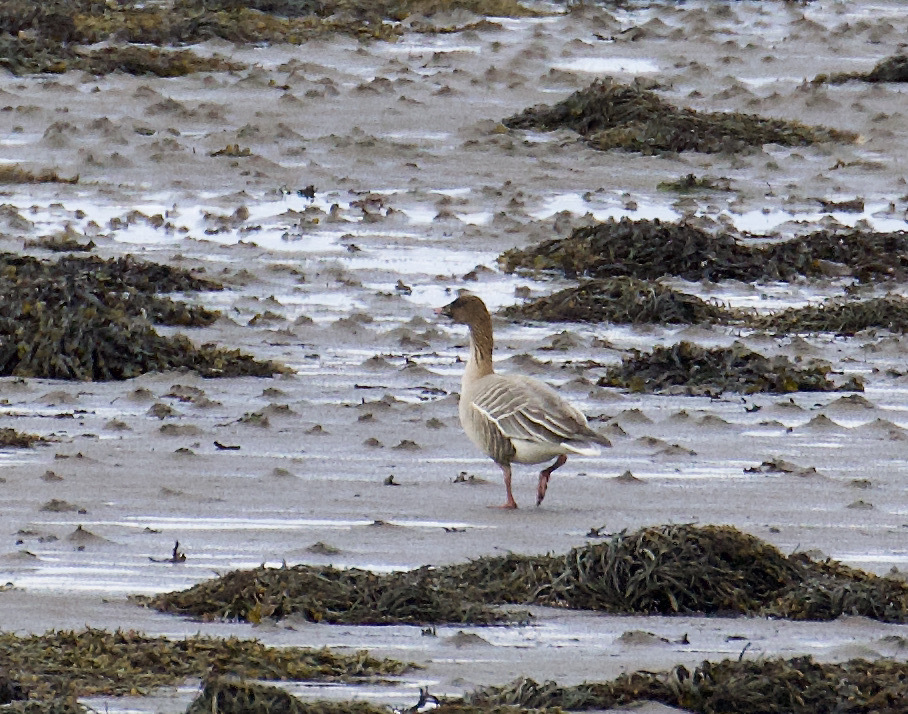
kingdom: Animalia
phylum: Chordata
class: Aves
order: Anseriformes
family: Anatidae
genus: Anser
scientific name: Anser brachyrhynchus
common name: Pink-footed goose
